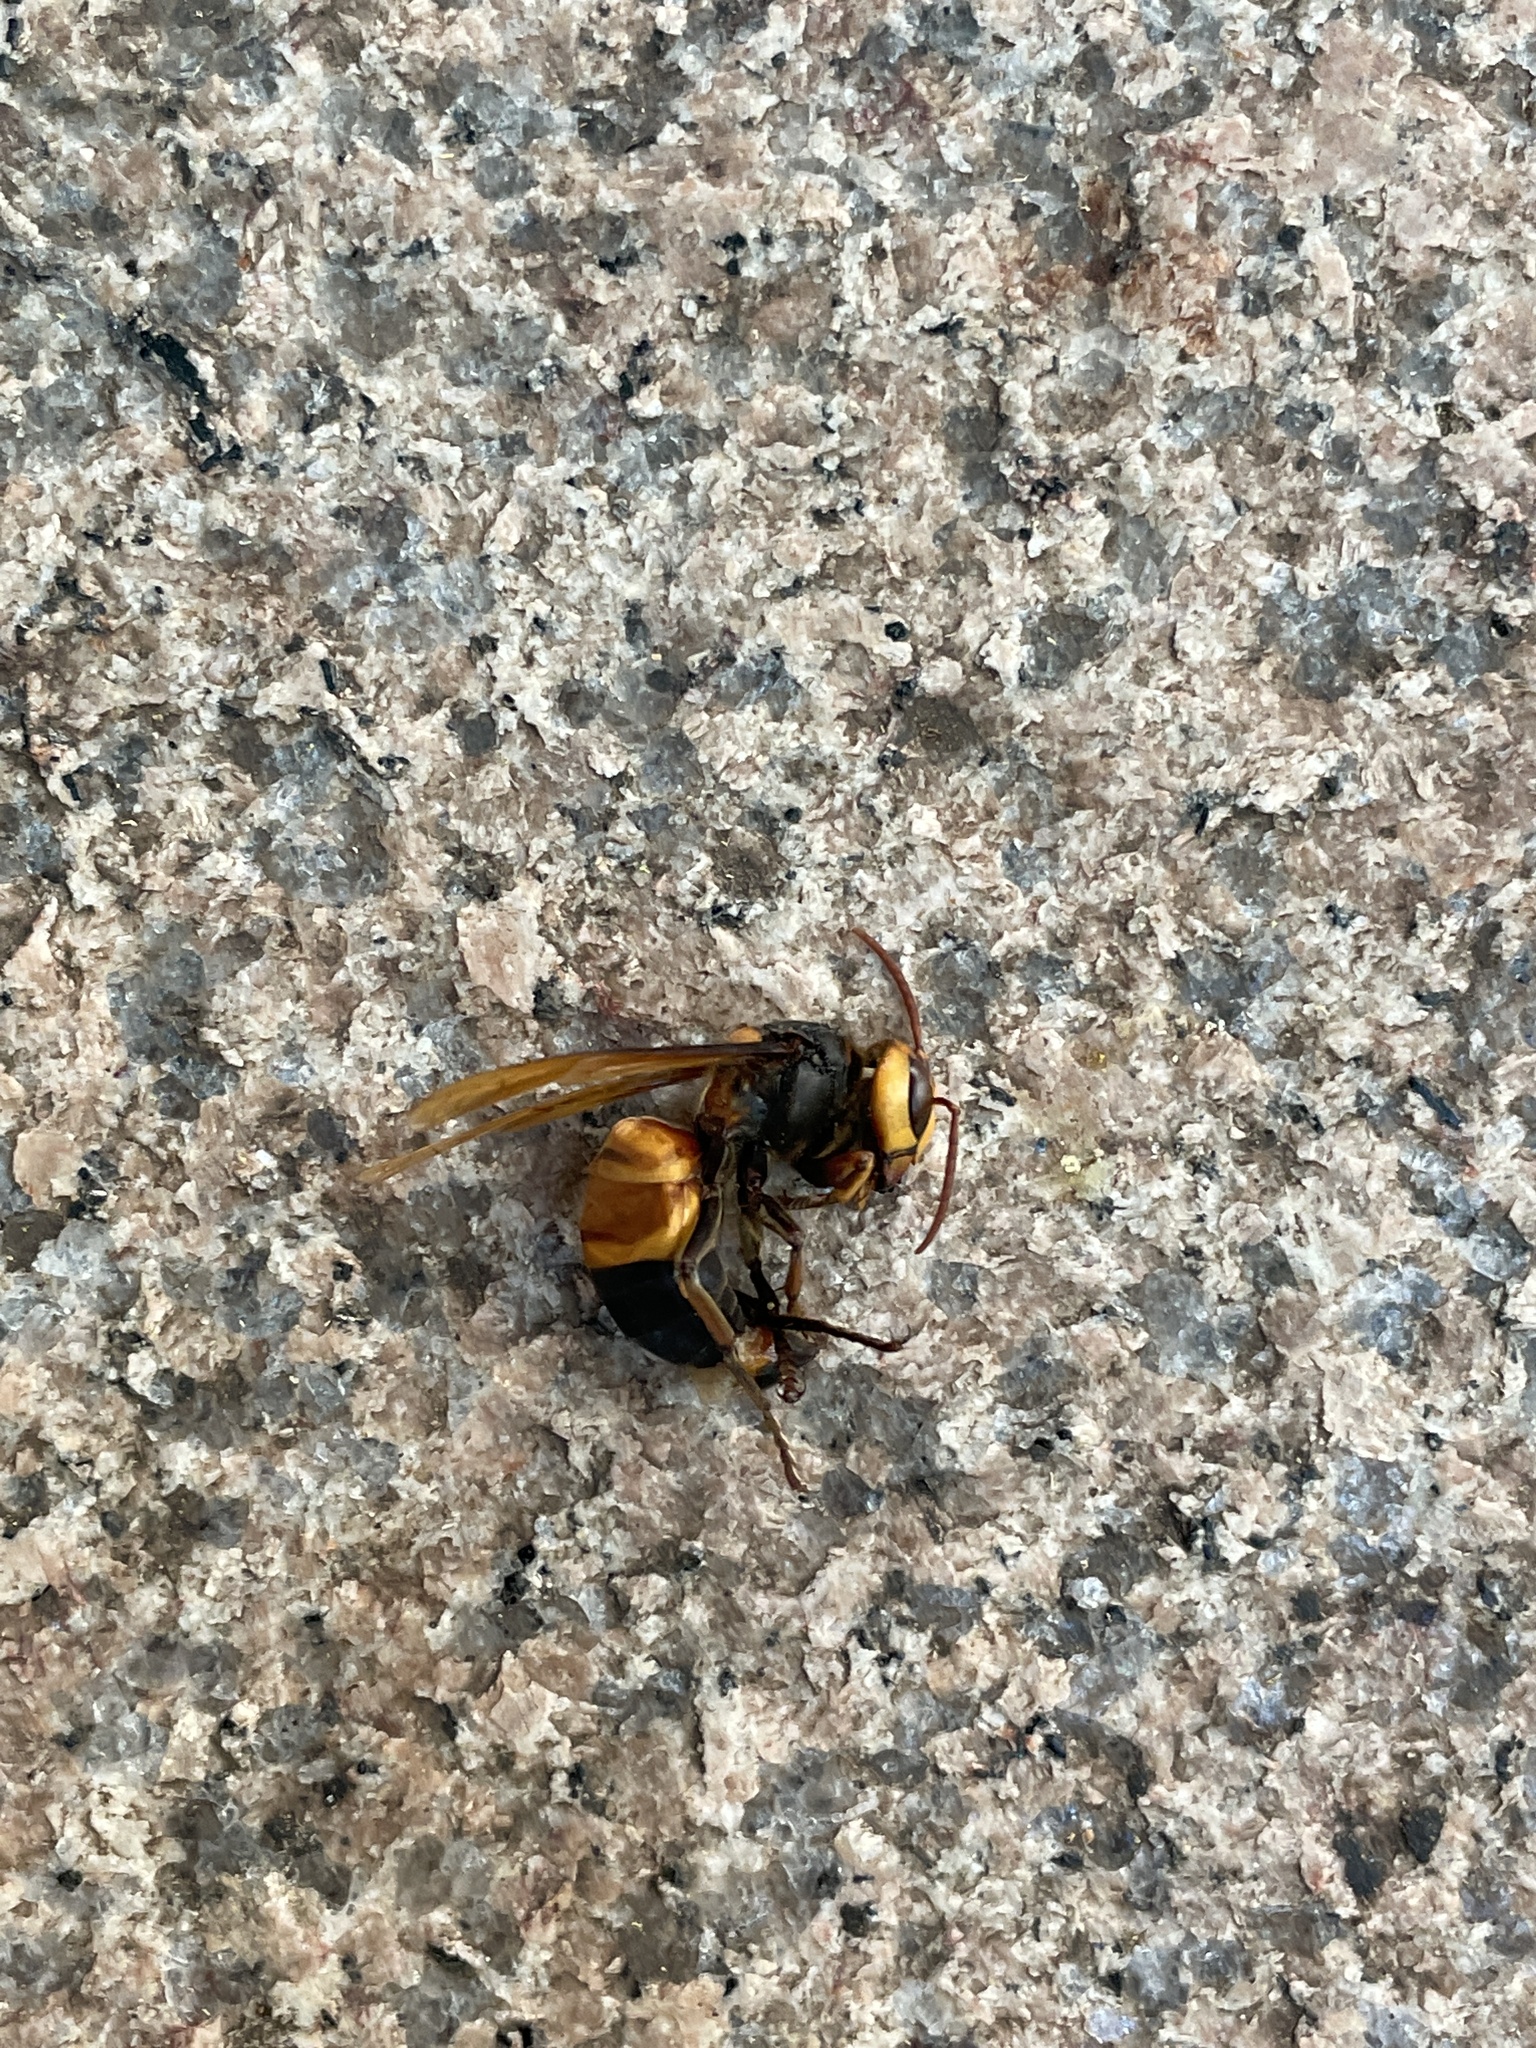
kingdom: Animalia
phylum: Arthropoda
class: Insecta
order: Hymenoptera
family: Vespidae
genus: Vespa
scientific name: Vespa soror
